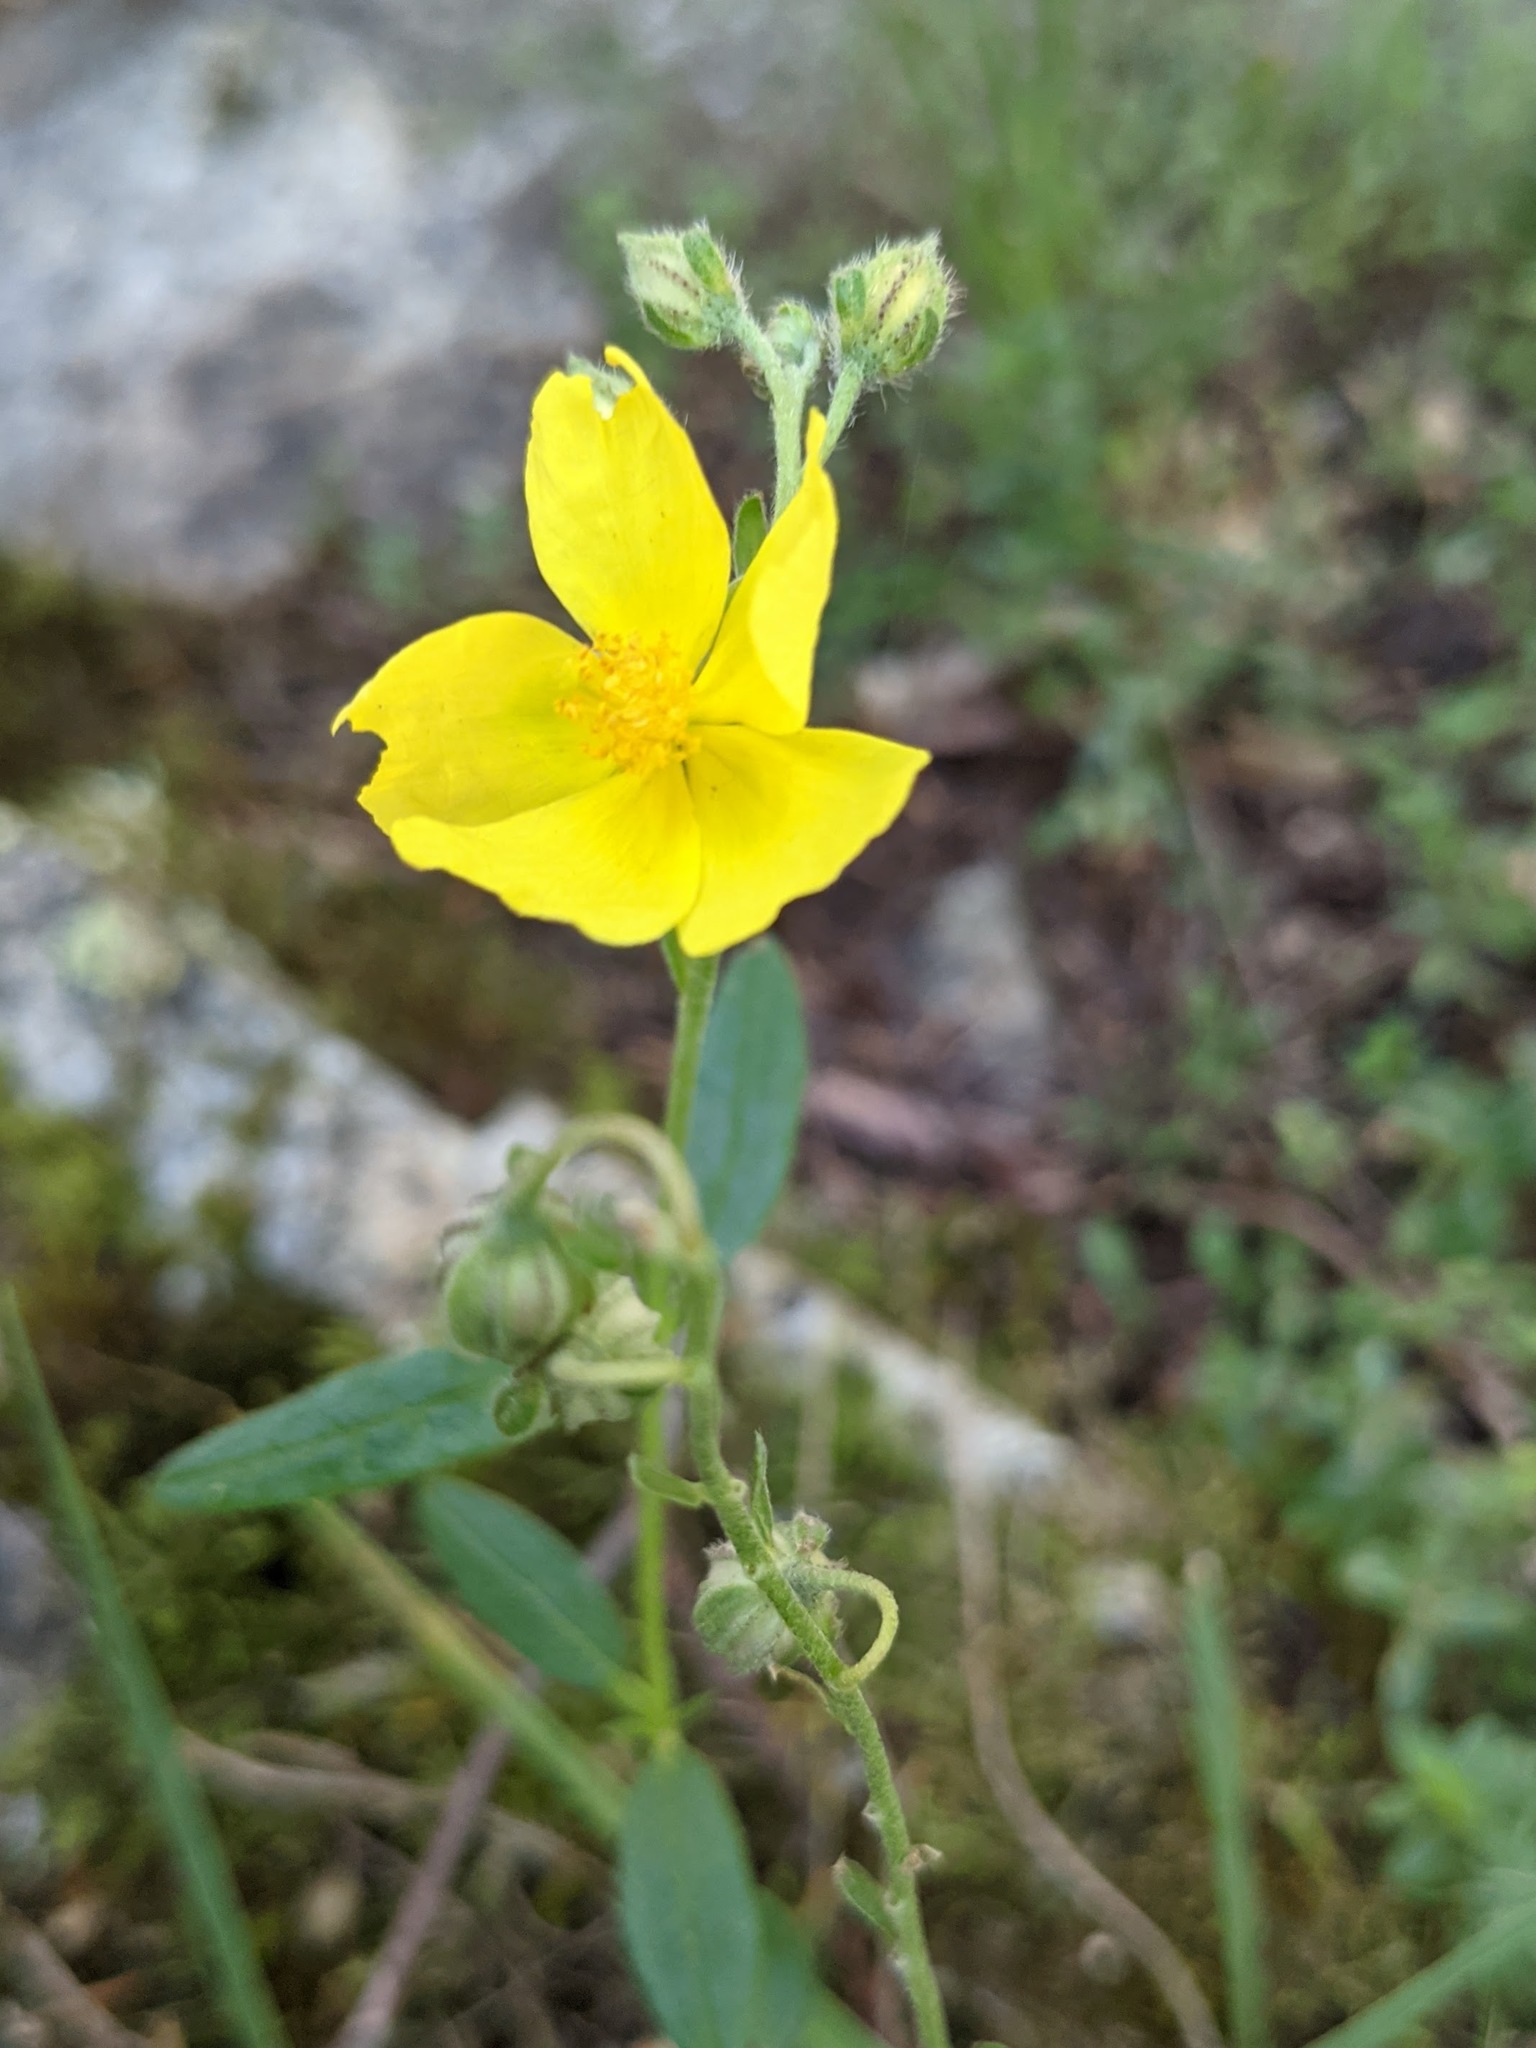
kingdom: Plantae
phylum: Tracheophyta
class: Magnoliopsida
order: Malvales
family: Cistaceae
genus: Helianthemum
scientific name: Helianthemum nummularium
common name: Common rock-rose
